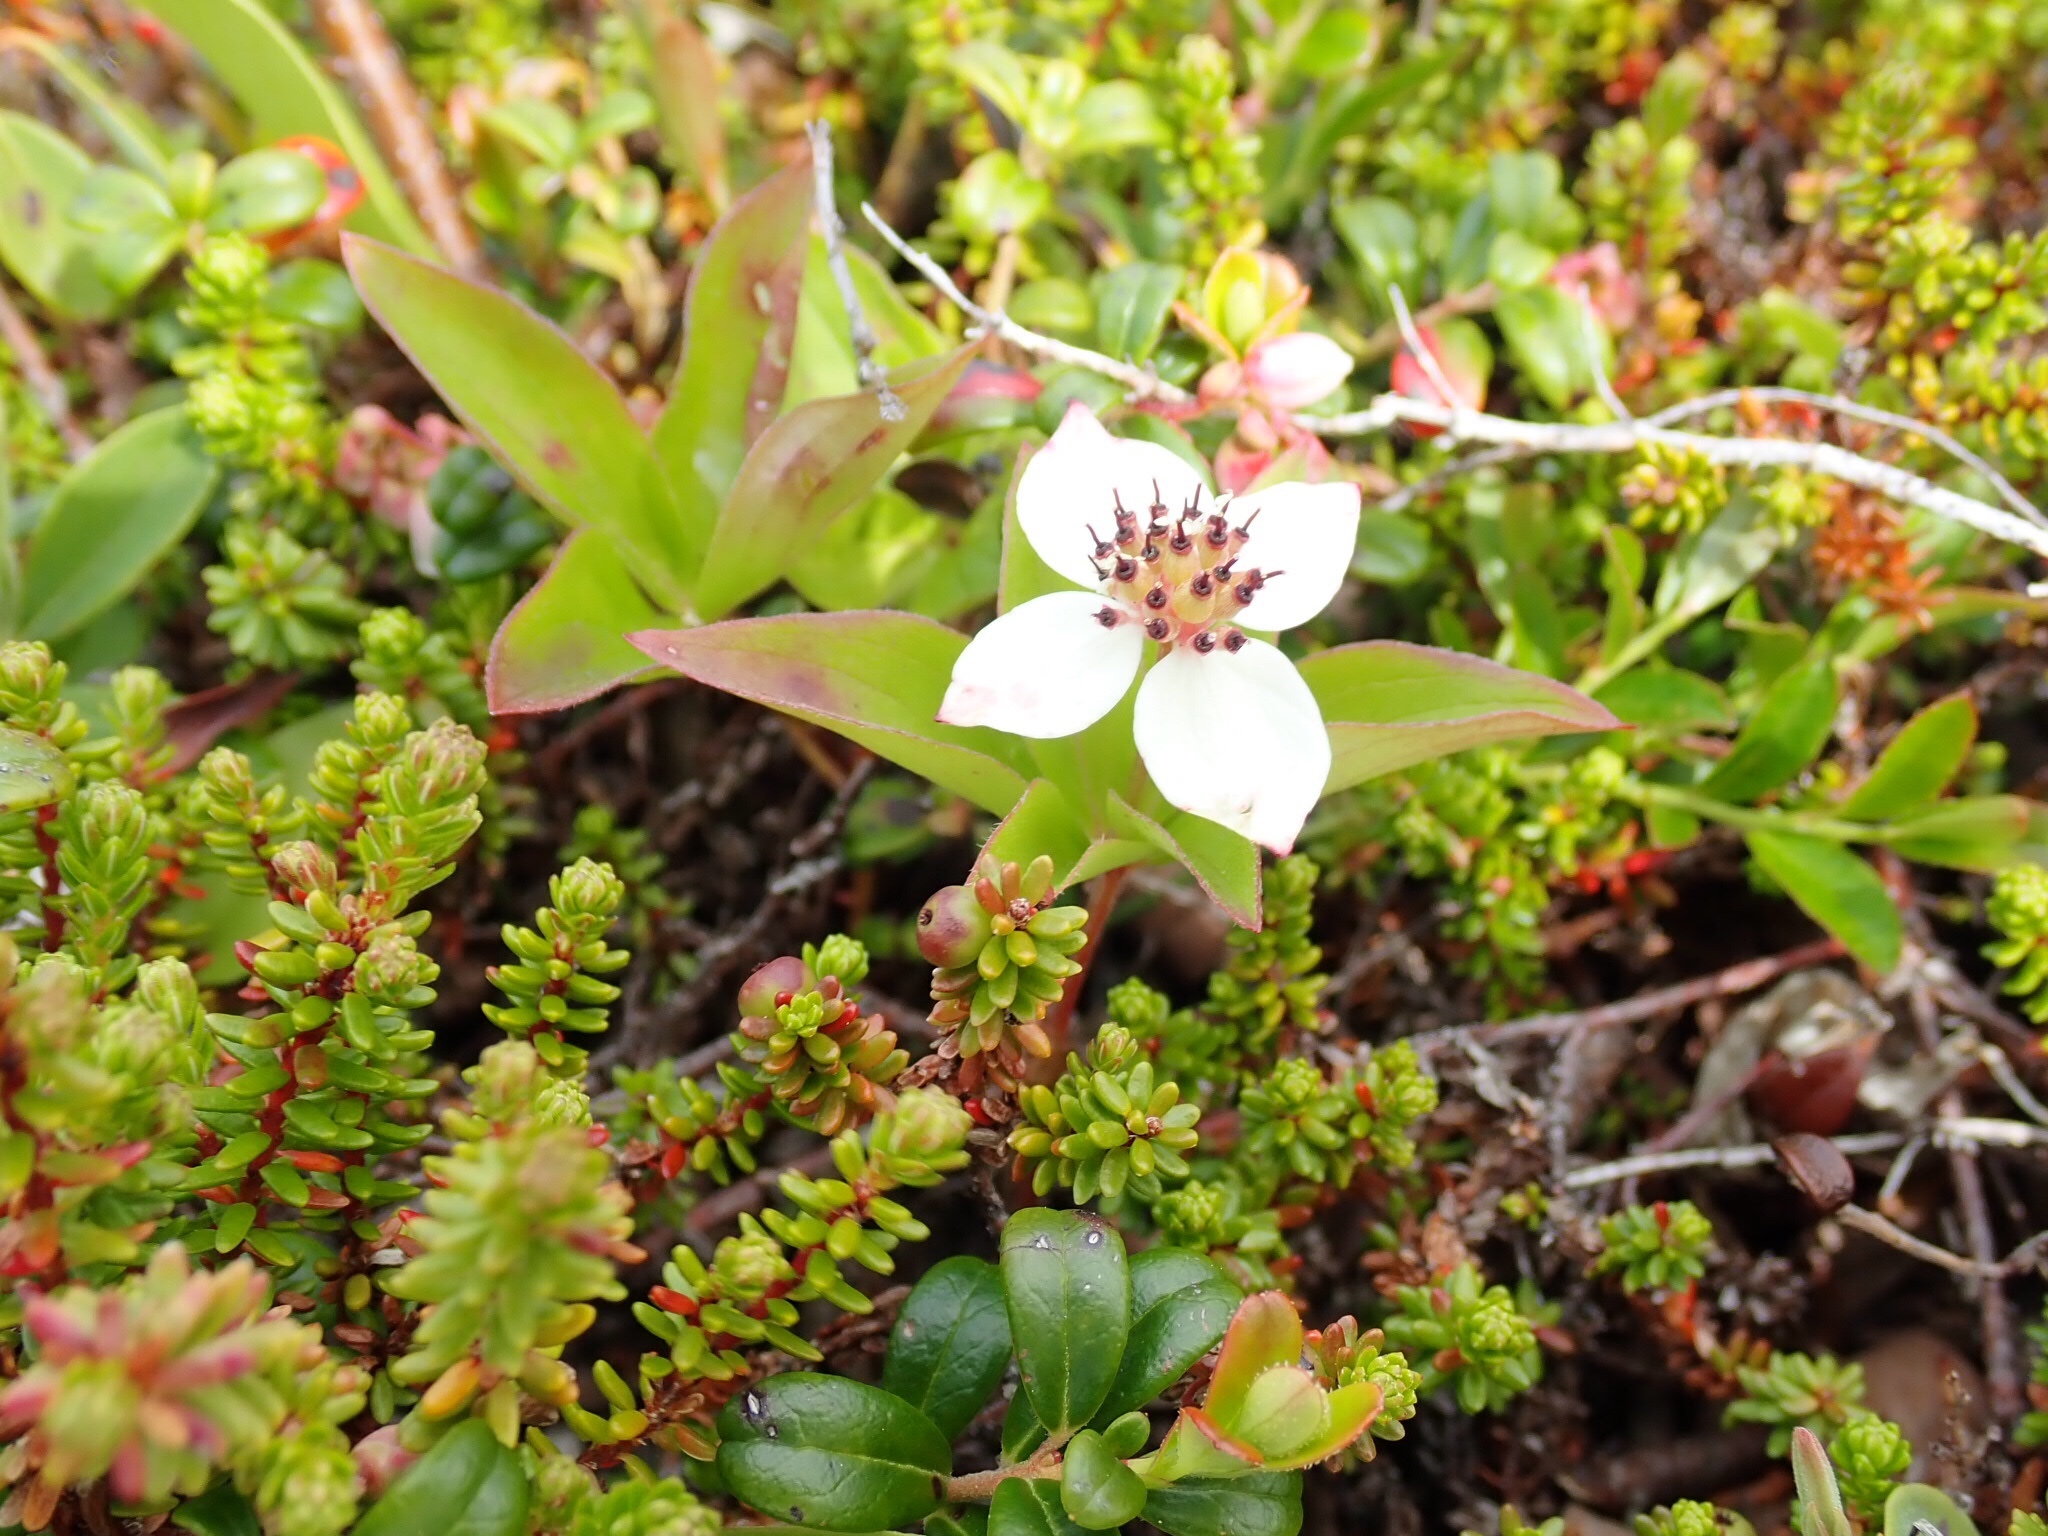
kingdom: Plantae
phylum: Tracheophyta
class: Magnoliopsida
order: Cornales
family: Cornaceae
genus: Cornus
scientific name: Cornus suecica
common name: Dwarf cornel
